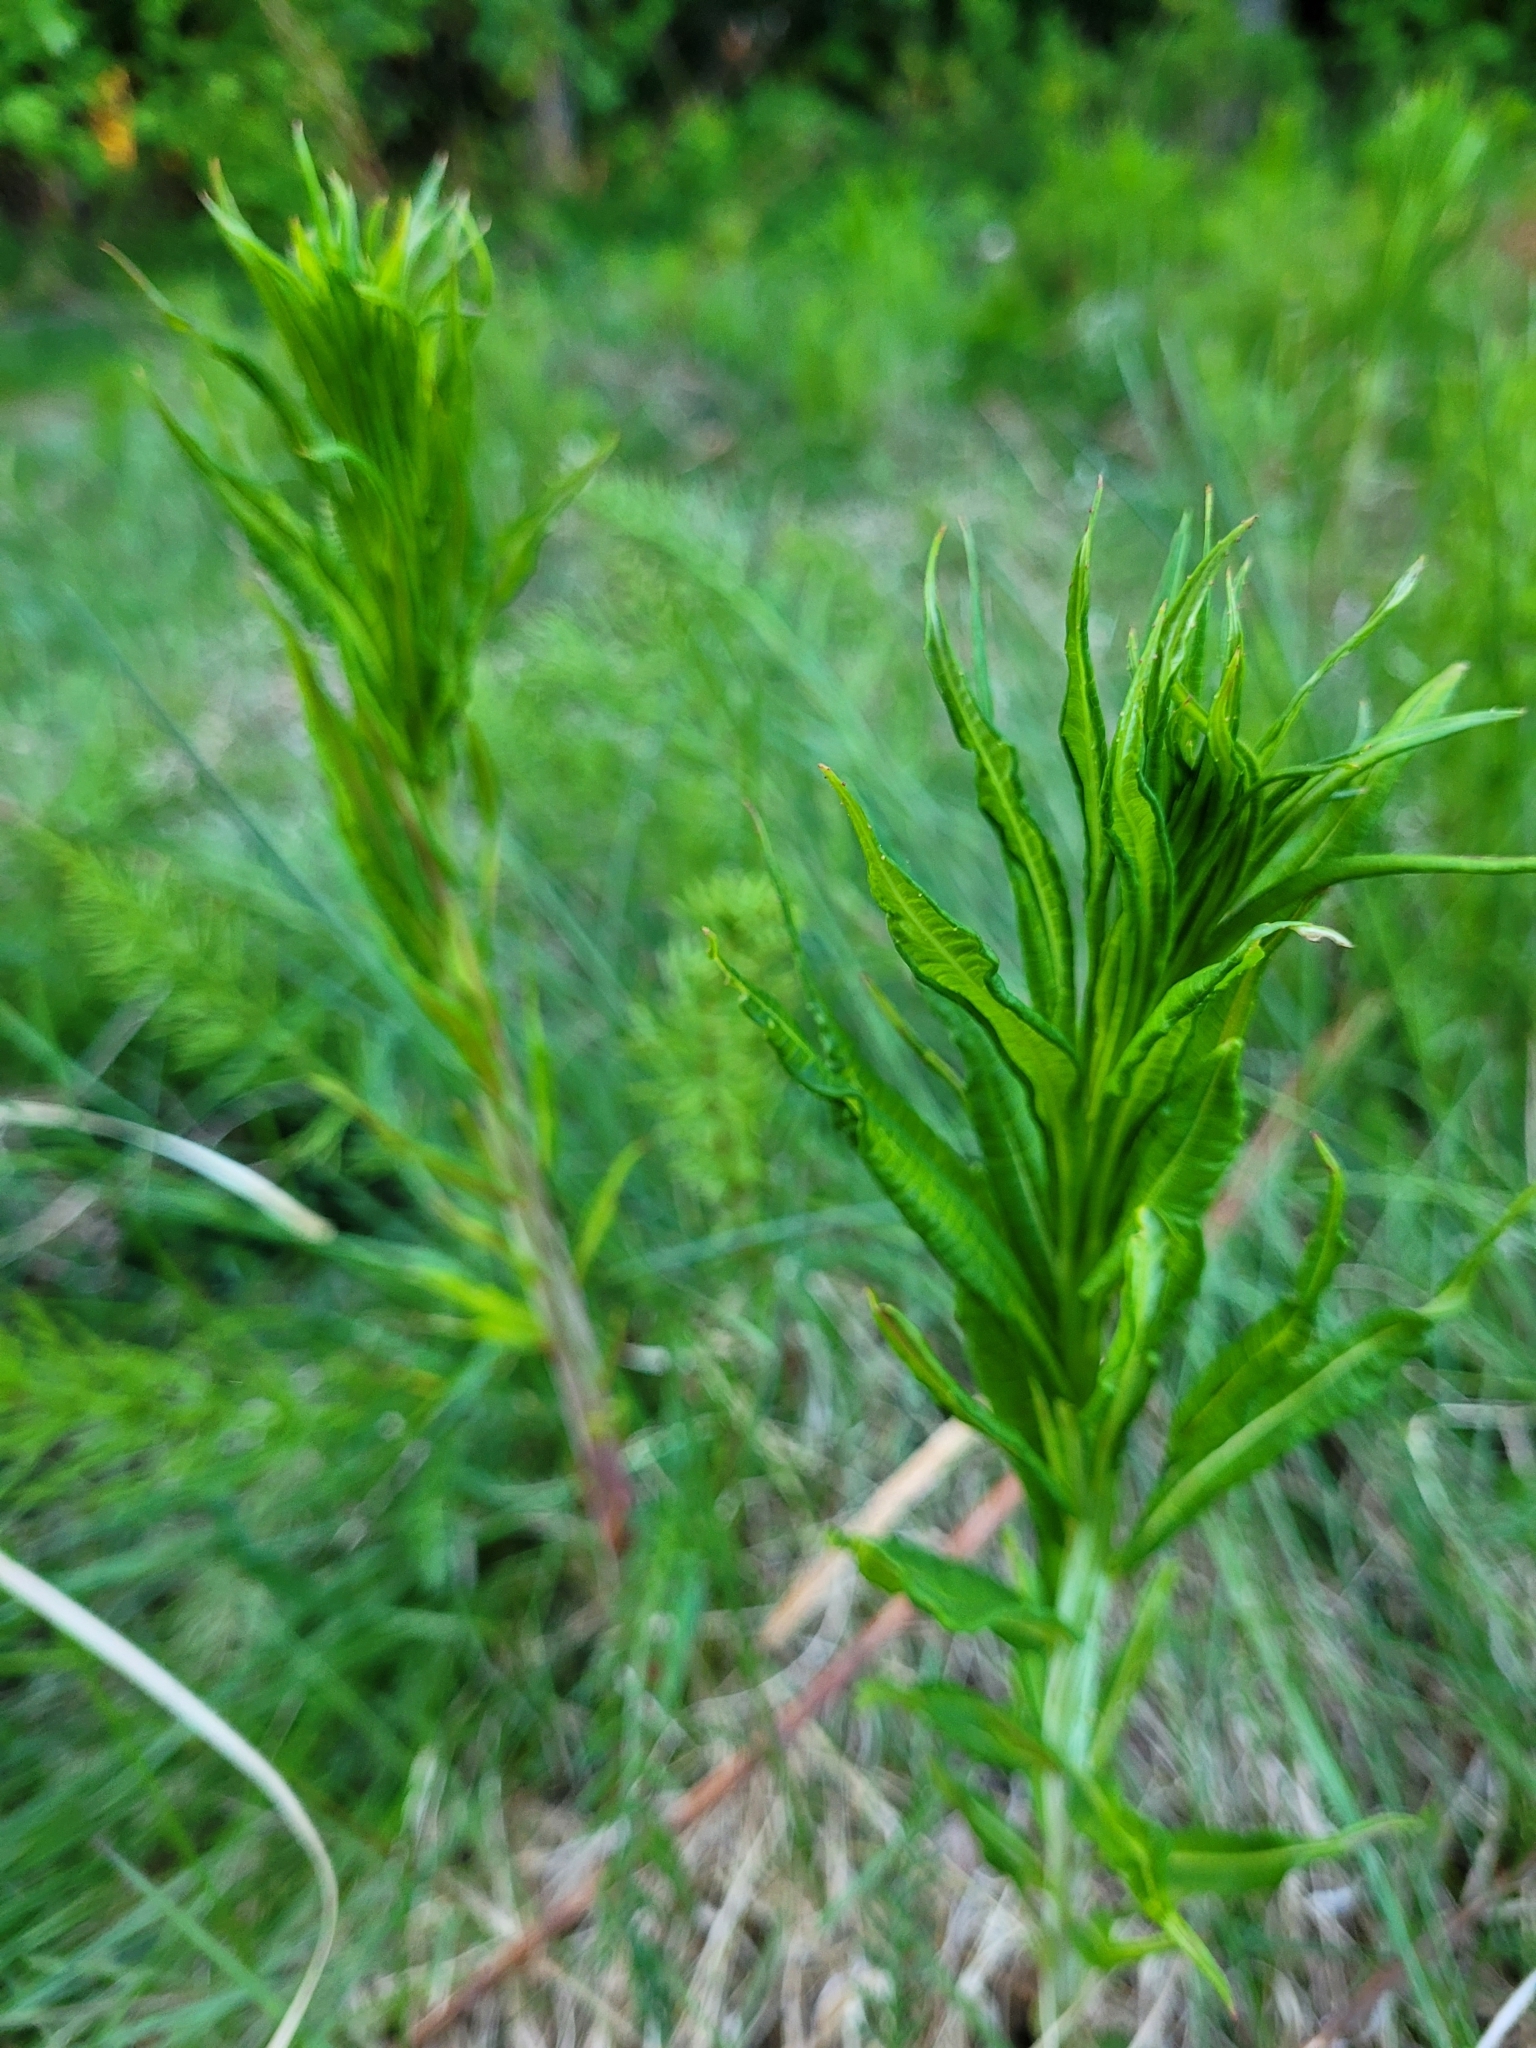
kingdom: Plantae
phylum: Tracheophyta
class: Magnoliopsida
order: Myrtales
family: Onagraceae
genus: Chamaenerion
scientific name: Chamaenerion angustifolium
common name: Fireweed
